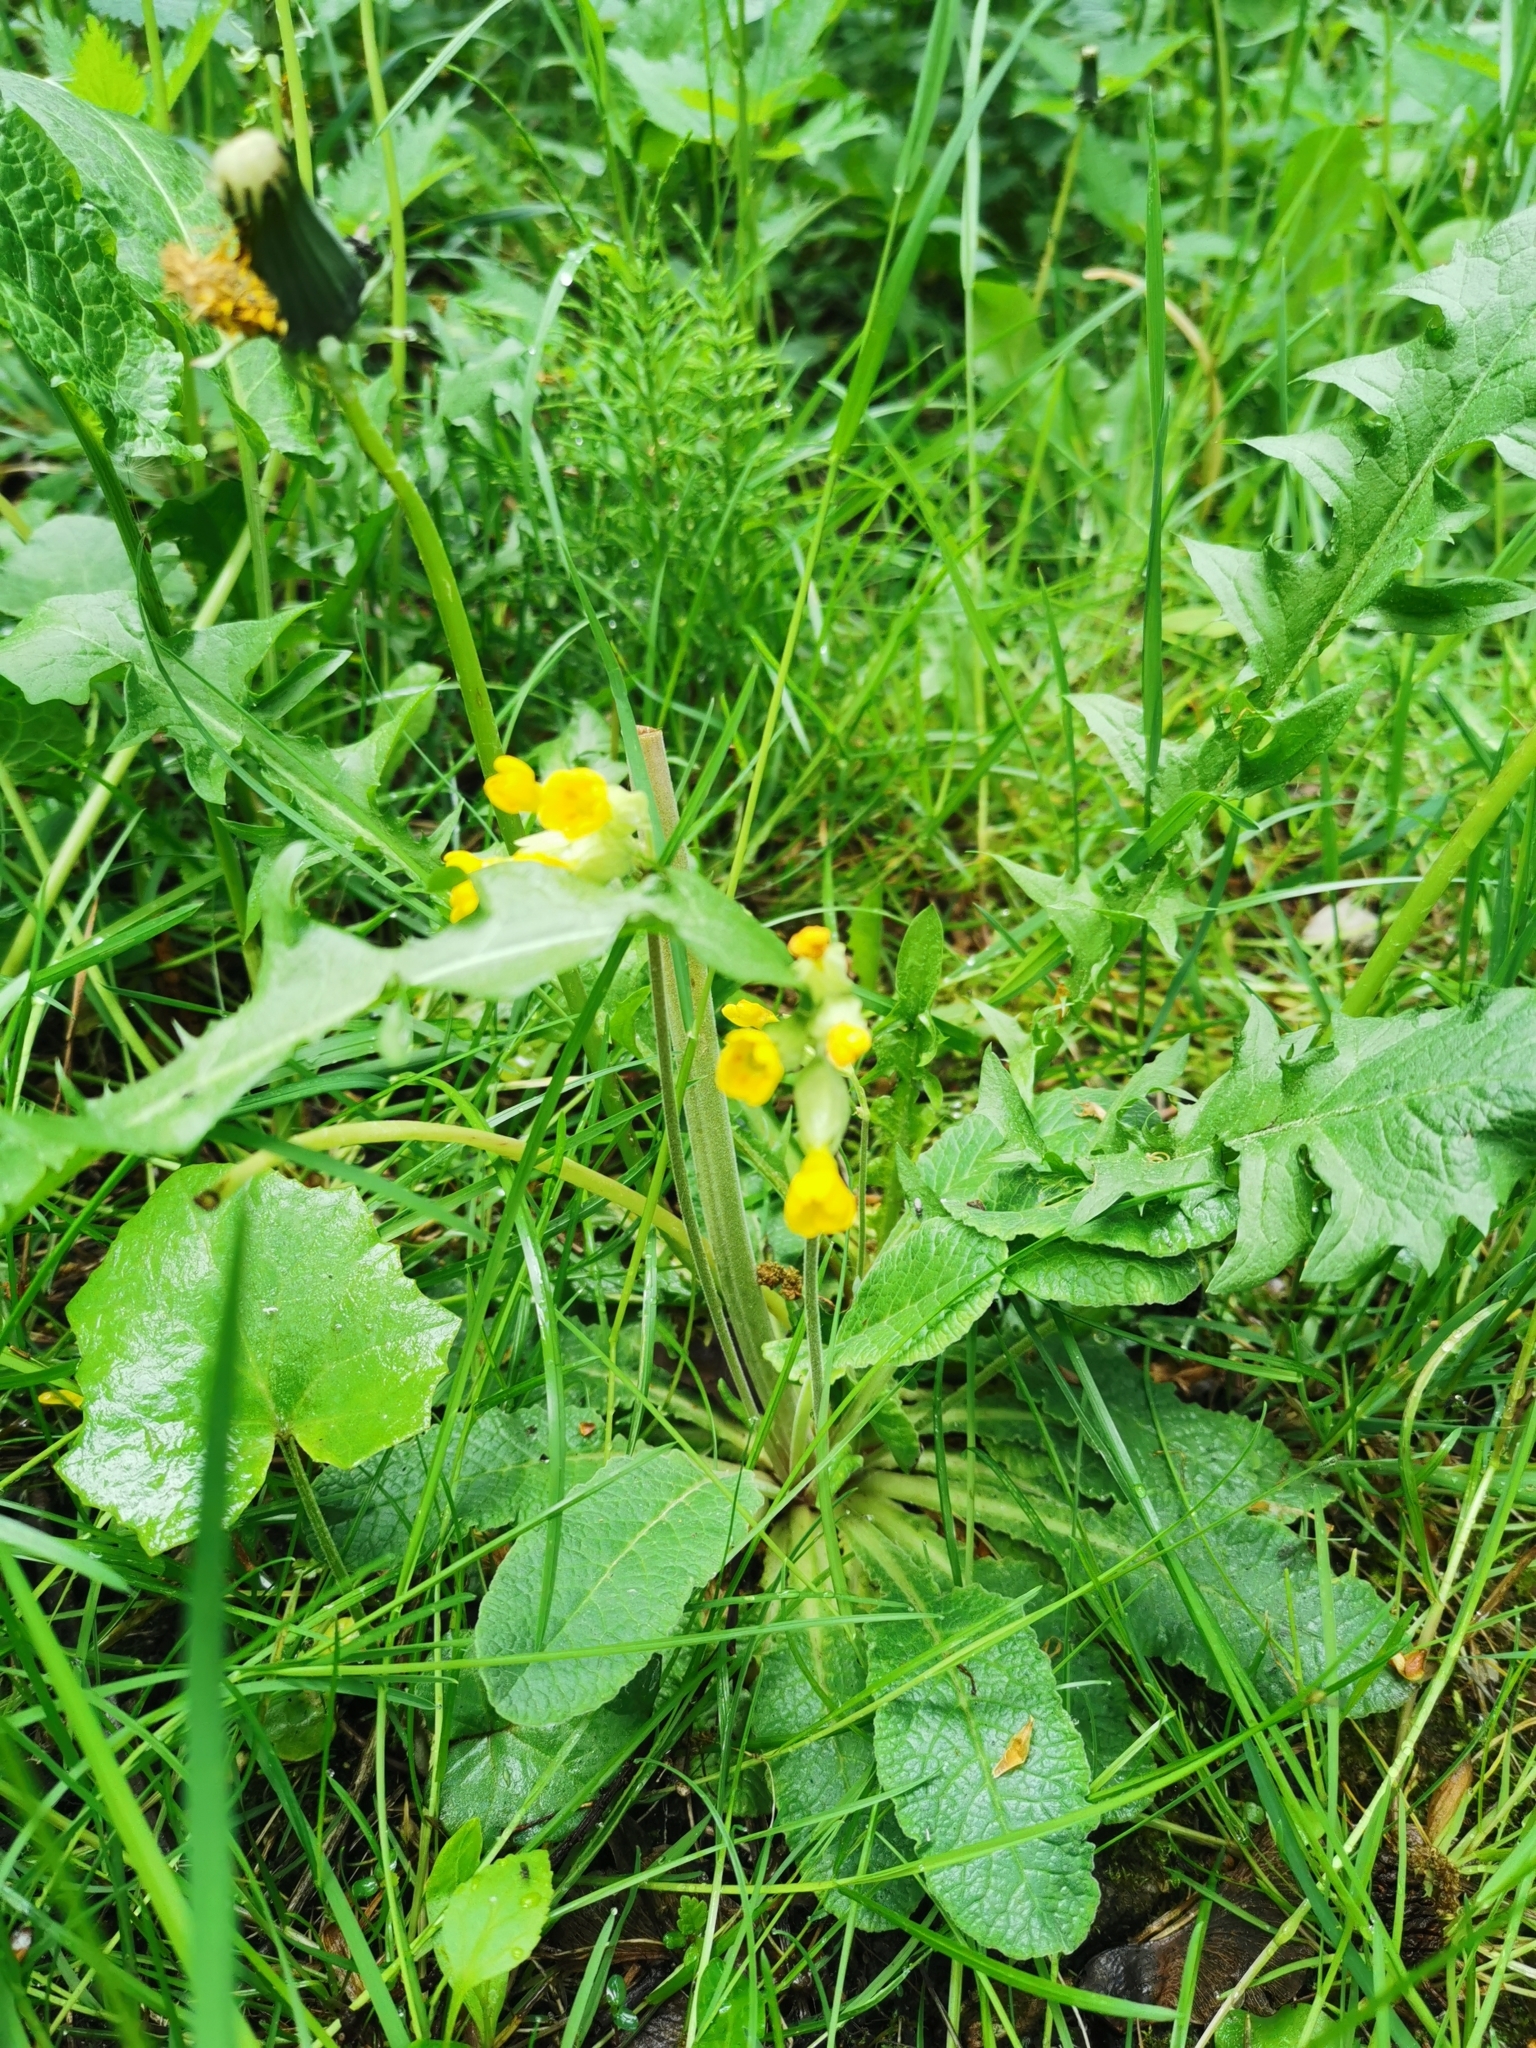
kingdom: Plantae
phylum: Tracheophyta
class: Magnoliopsida
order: Ericales
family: Primulaceae
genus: Primula
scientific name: Primula veris
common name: Cowslip
